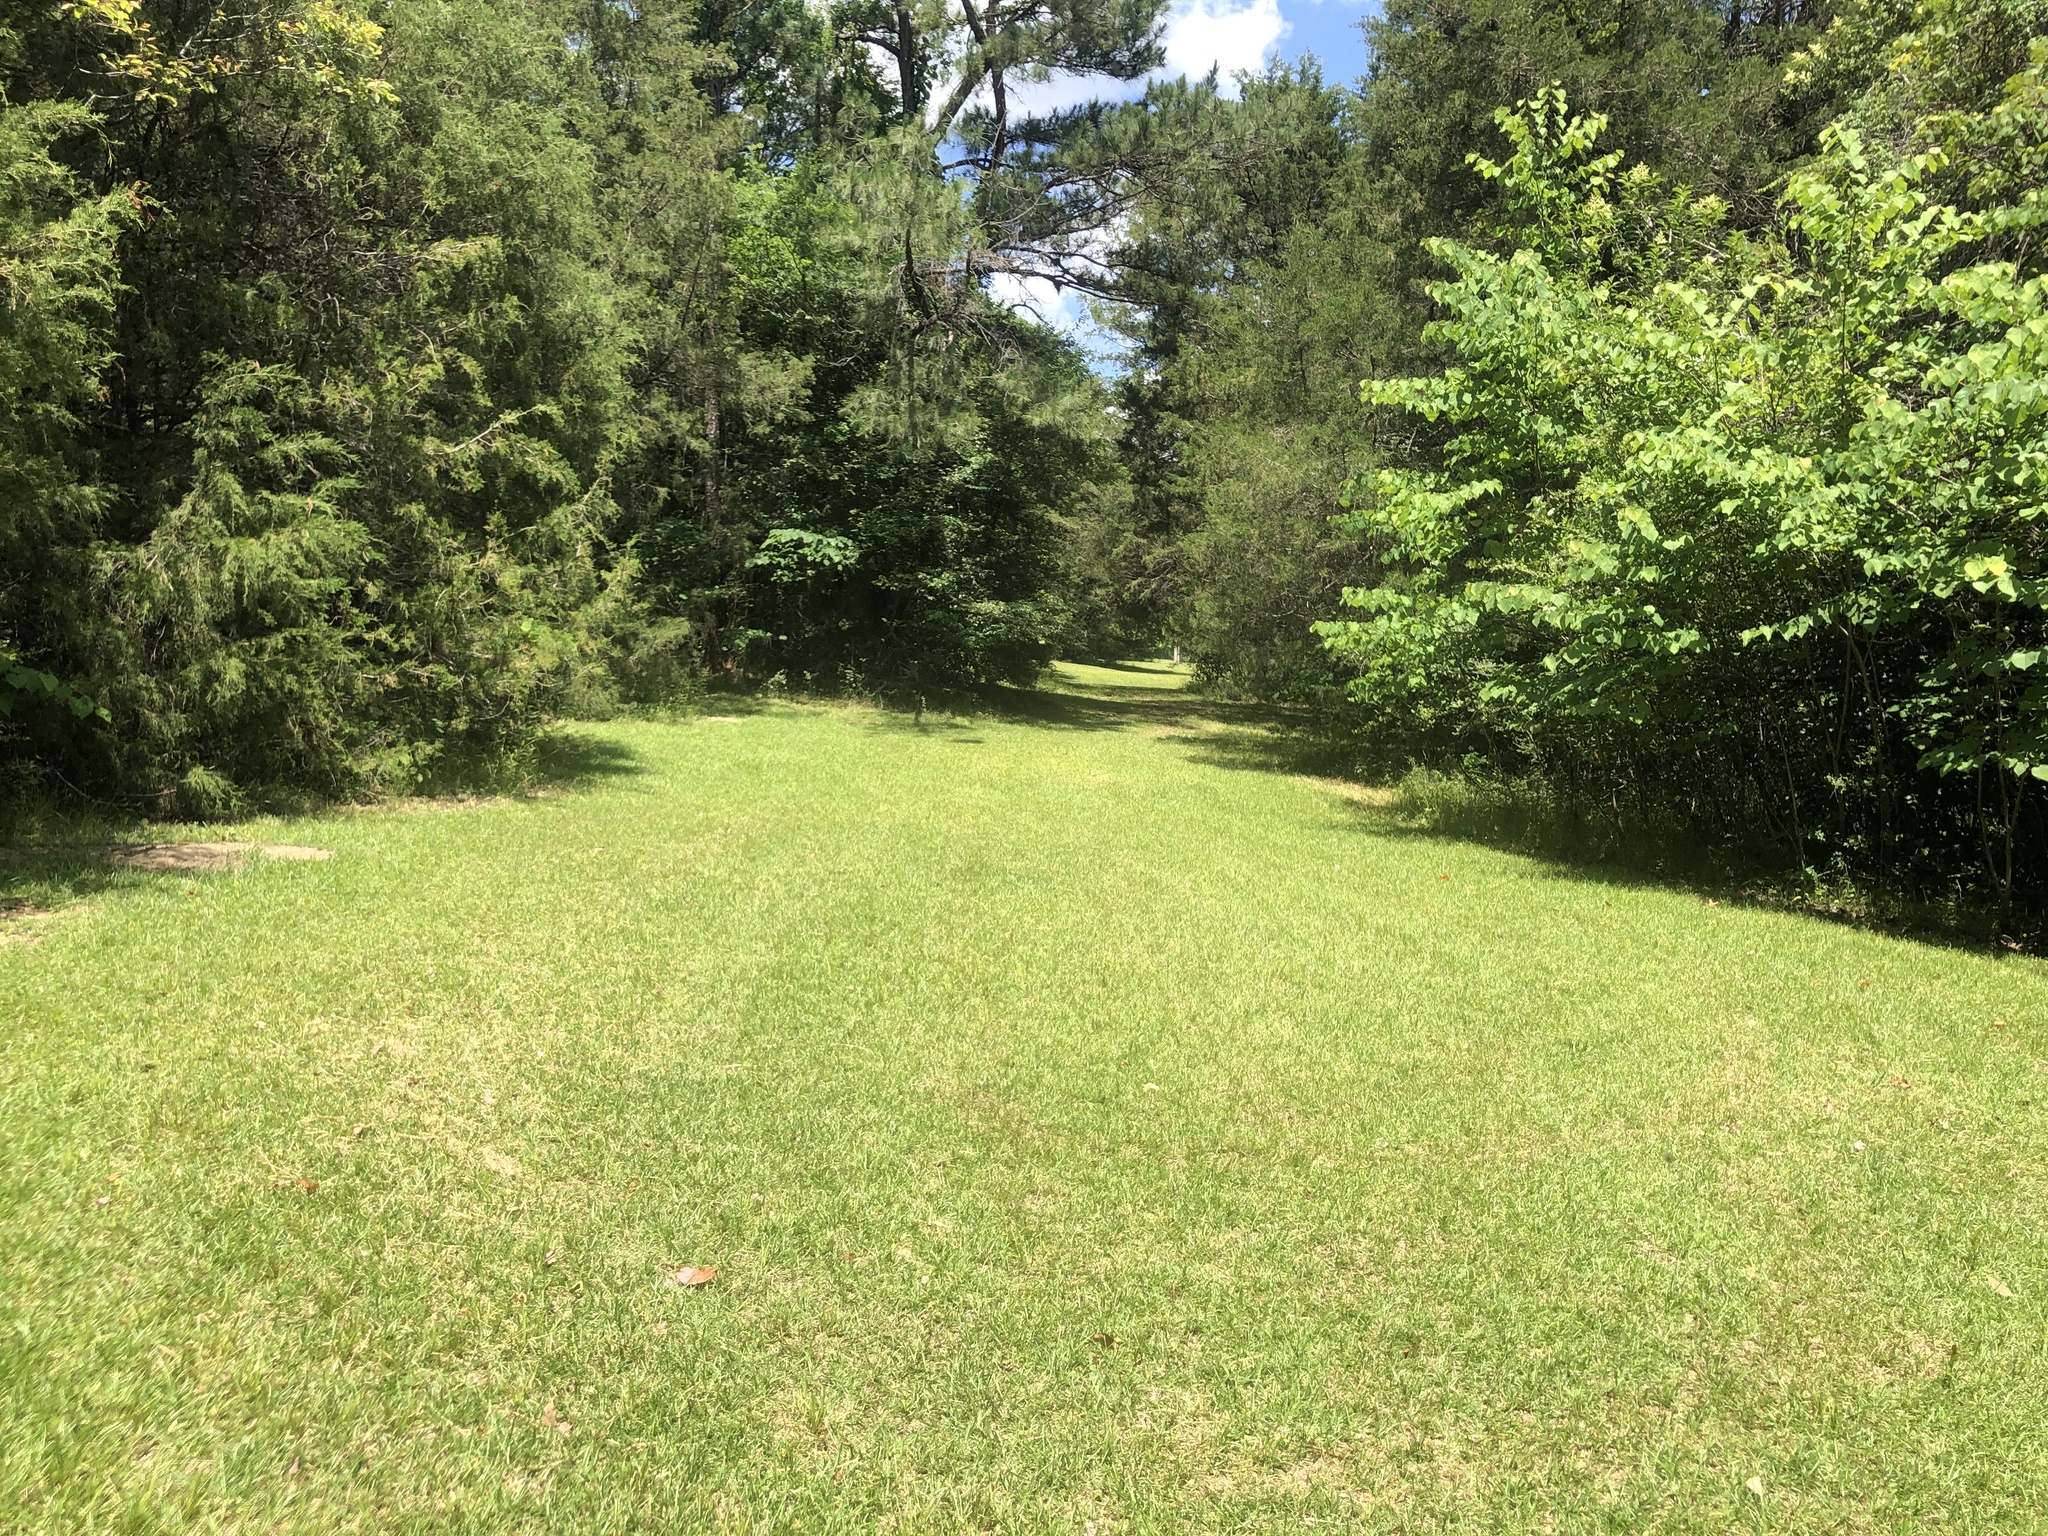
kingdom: Plantae
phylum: Tracheophyta
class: Pinopsida
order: Pinales
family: Cupressaceae
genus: Juniperus
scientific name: Juniperus virginiana
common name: Red juniper
